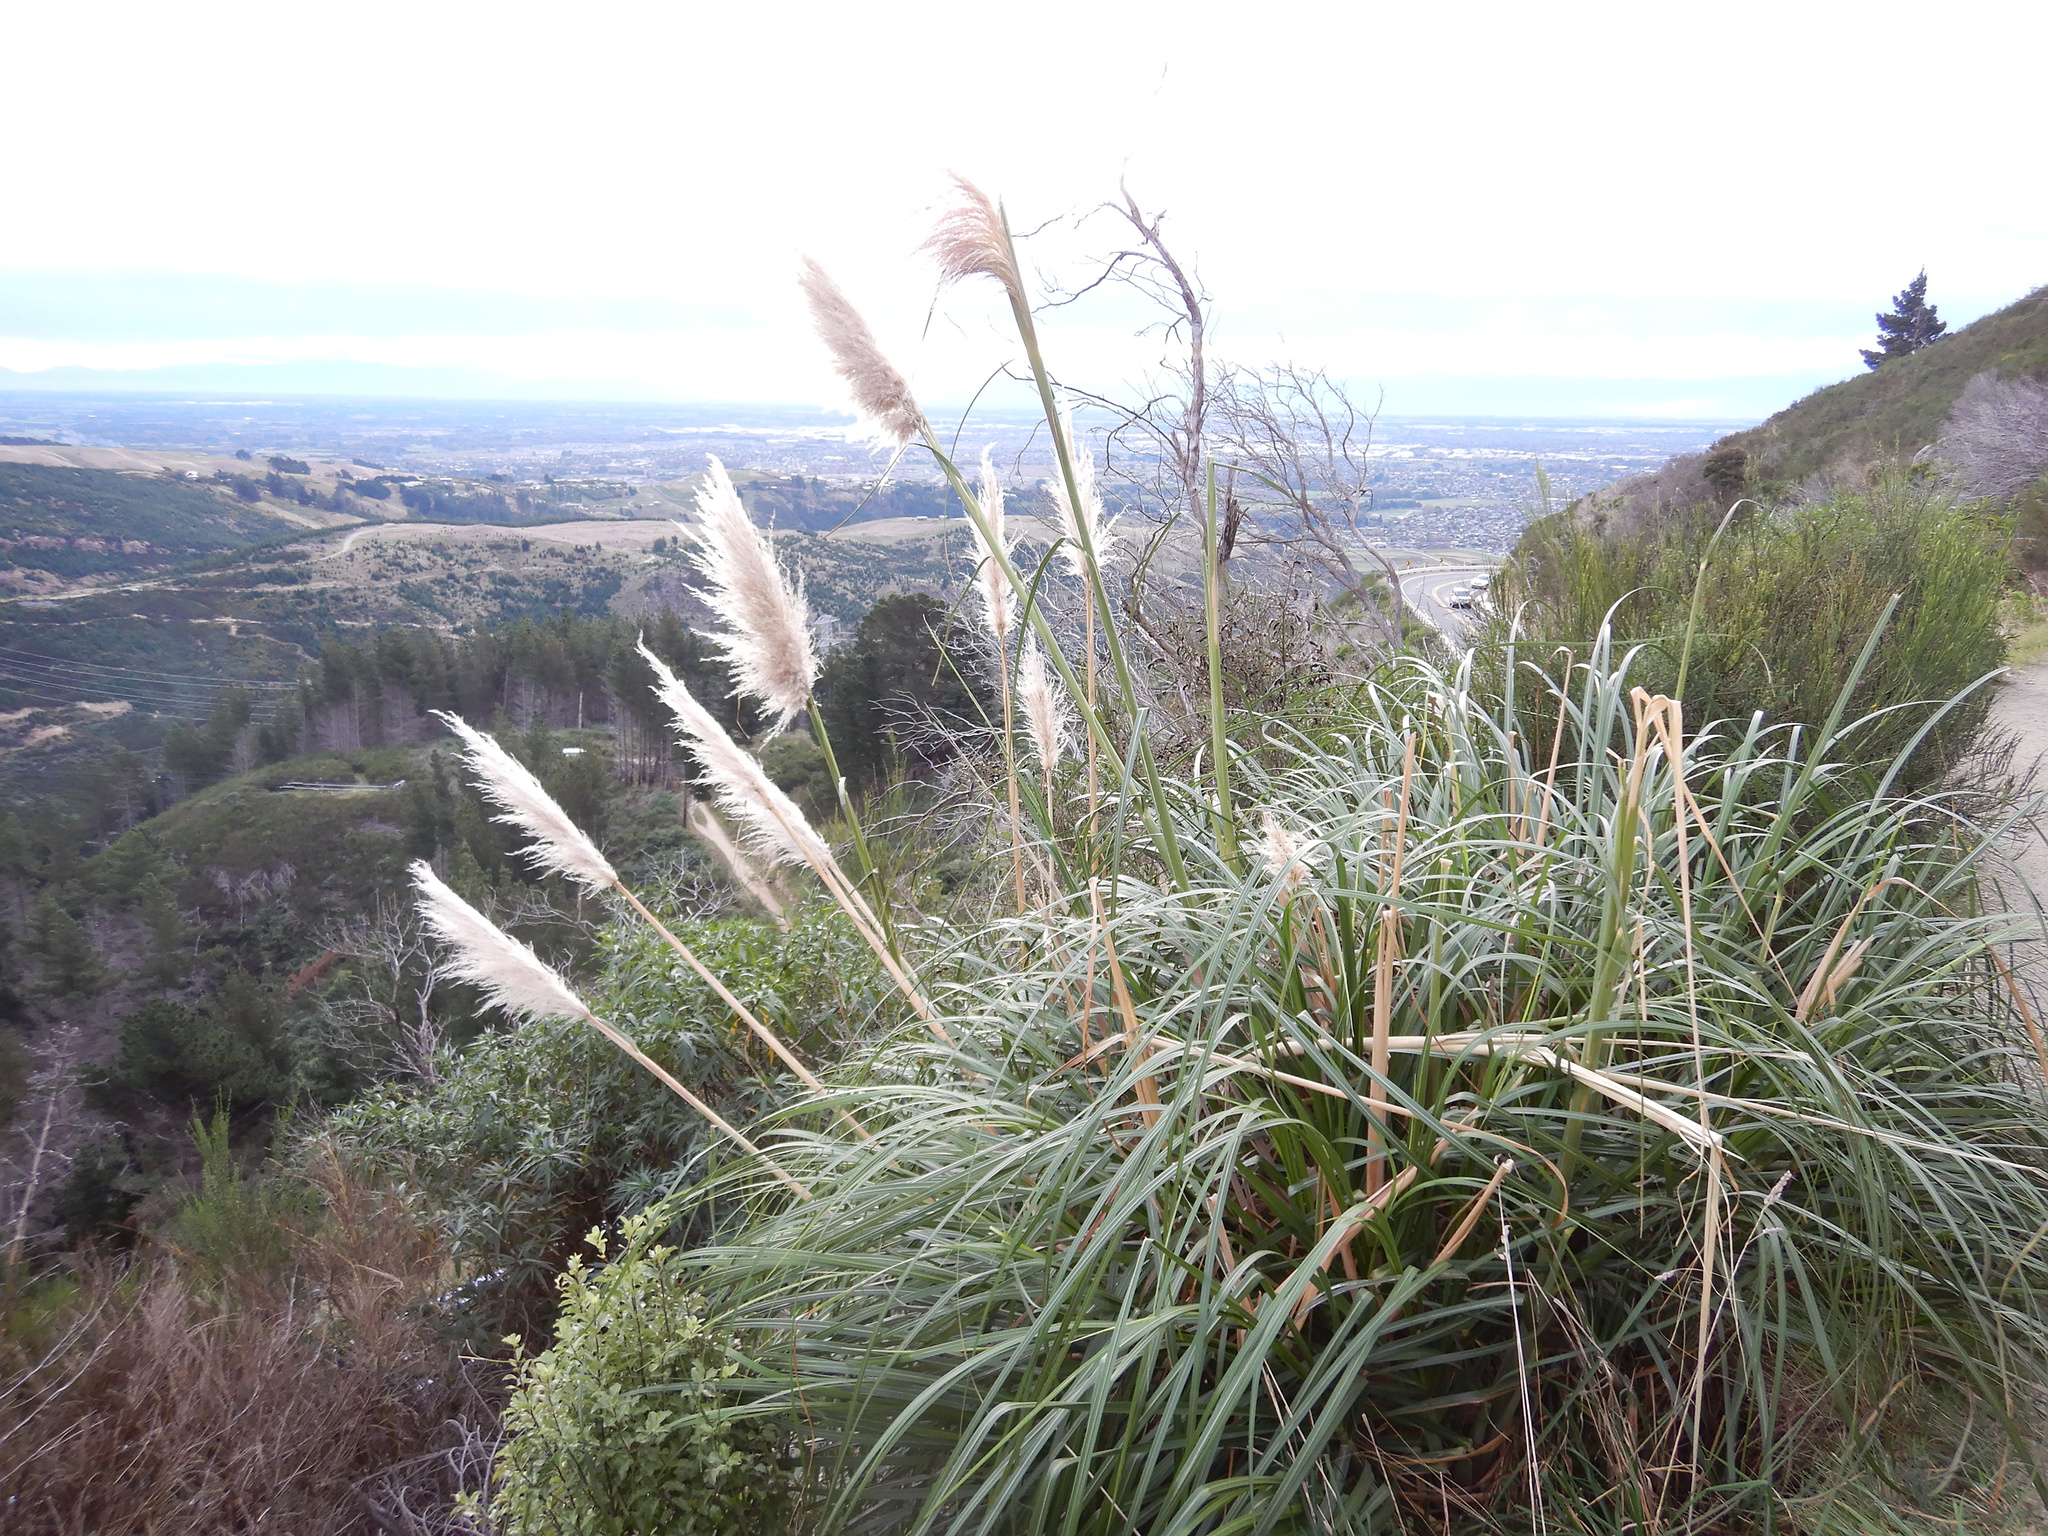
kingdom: Plantae
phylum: Tracheophyta
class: Liliopsida
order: Poales
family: Poaceae
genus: Cortaderia
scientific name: Cortaderia selloana
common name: Uruguayan pampas grass
